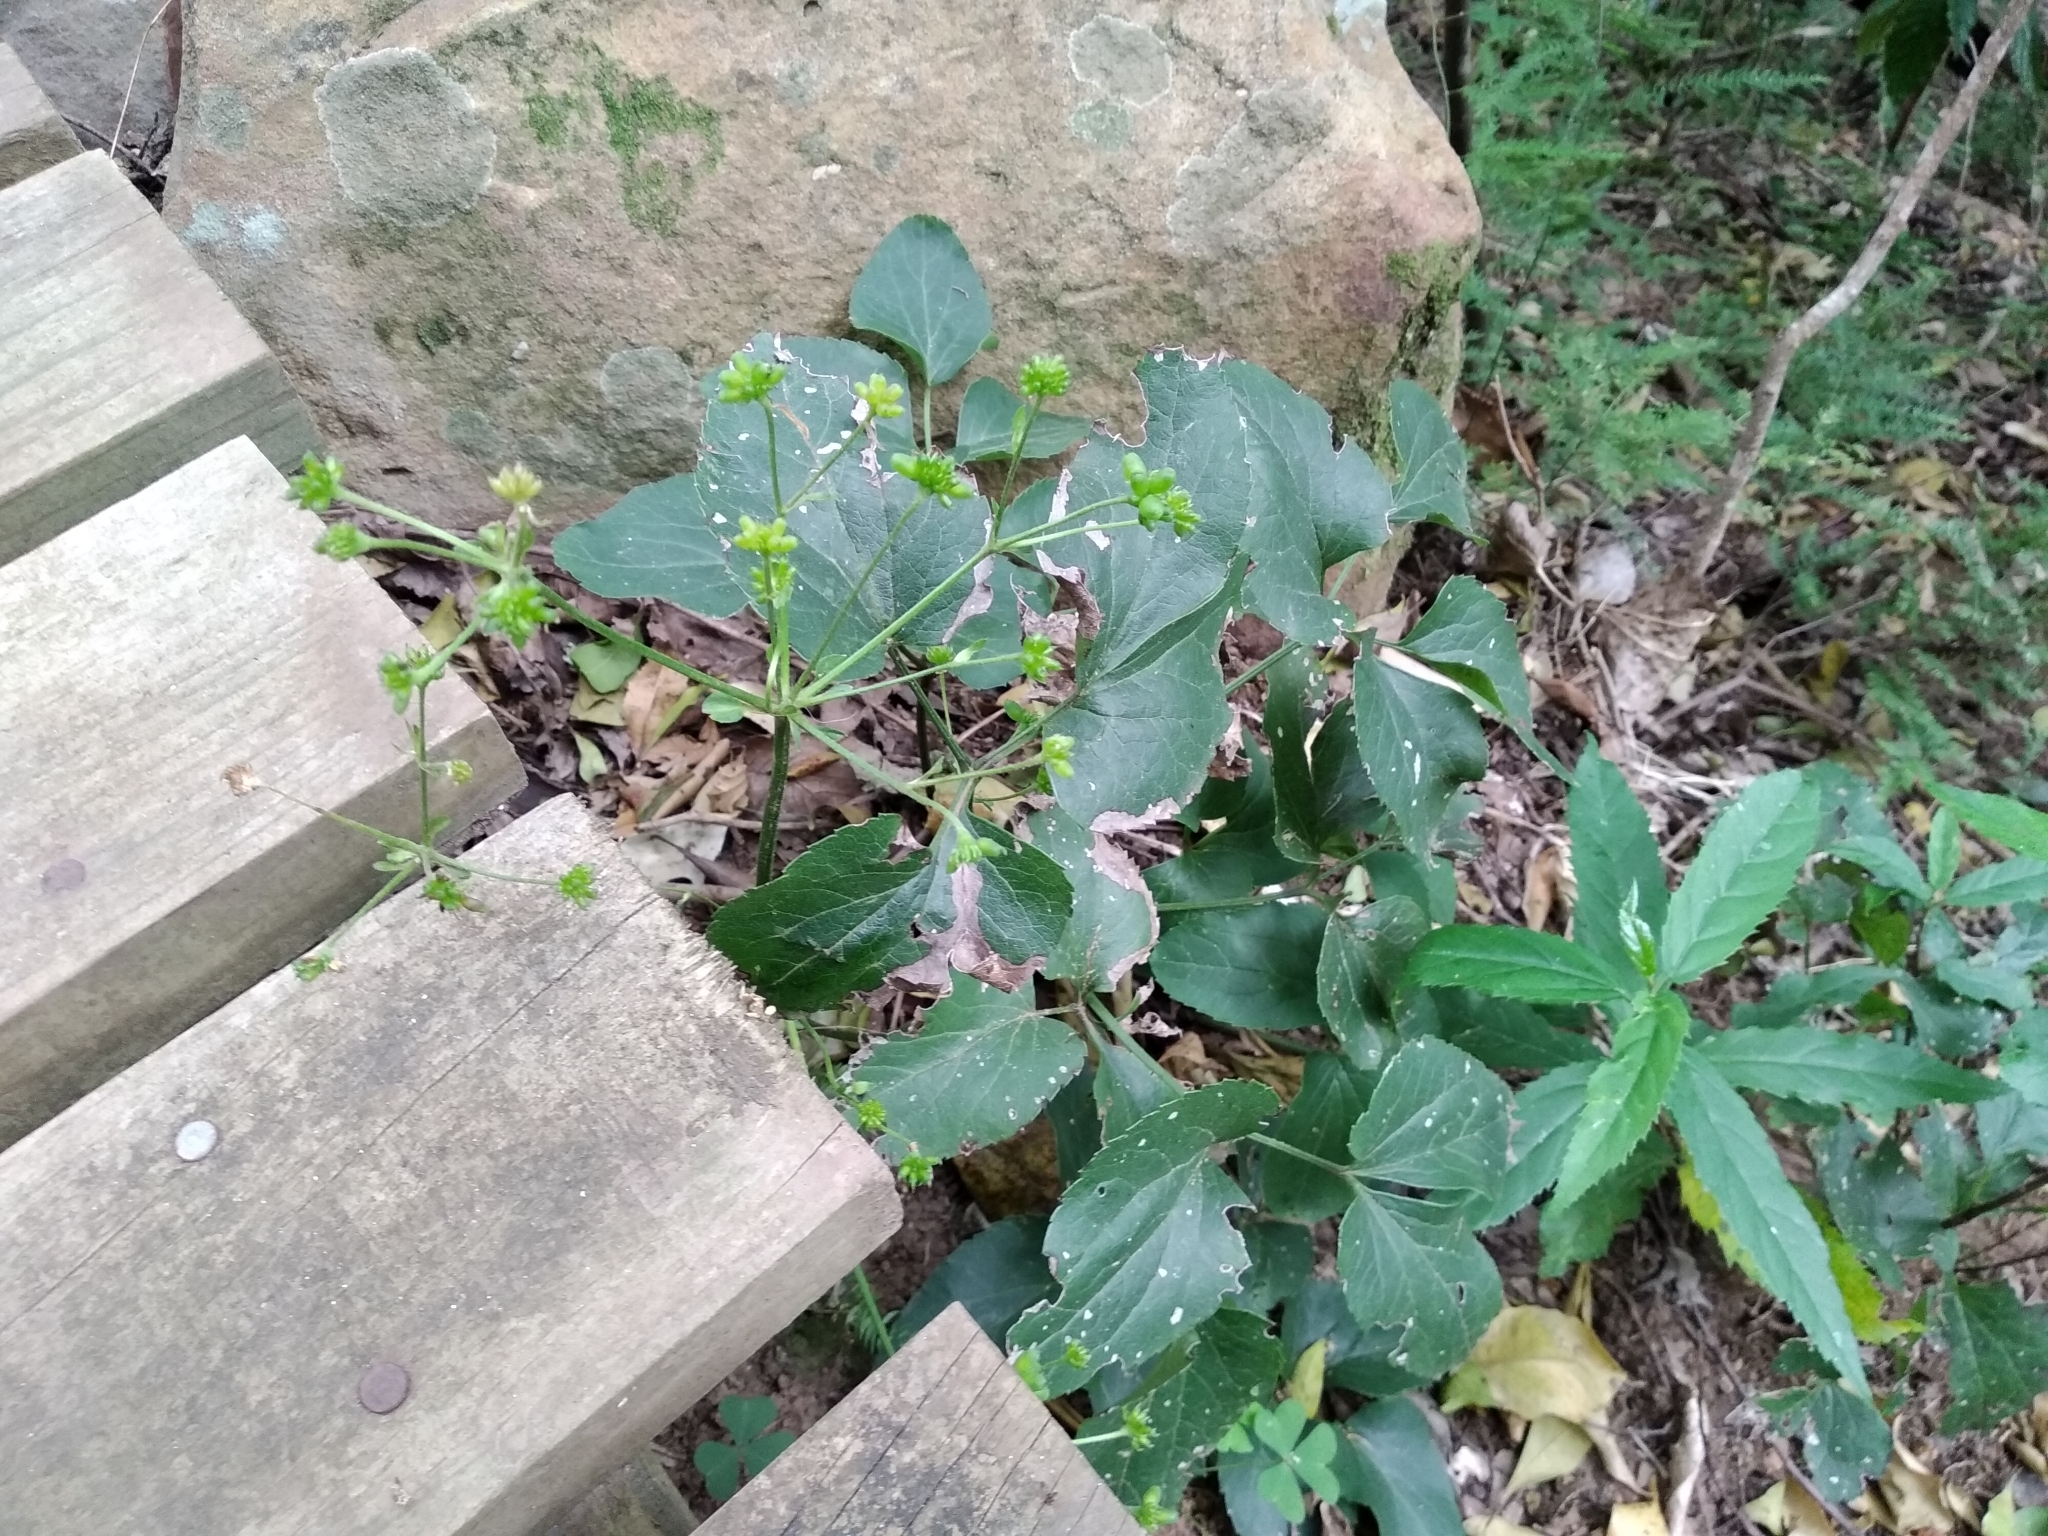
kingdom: Plantae
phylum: Tracheophyta
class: Magnoliopsida
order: Ranunculales
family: Ranunculaceae
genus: Knowltonia
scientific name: Knowltonia vesicatoria
